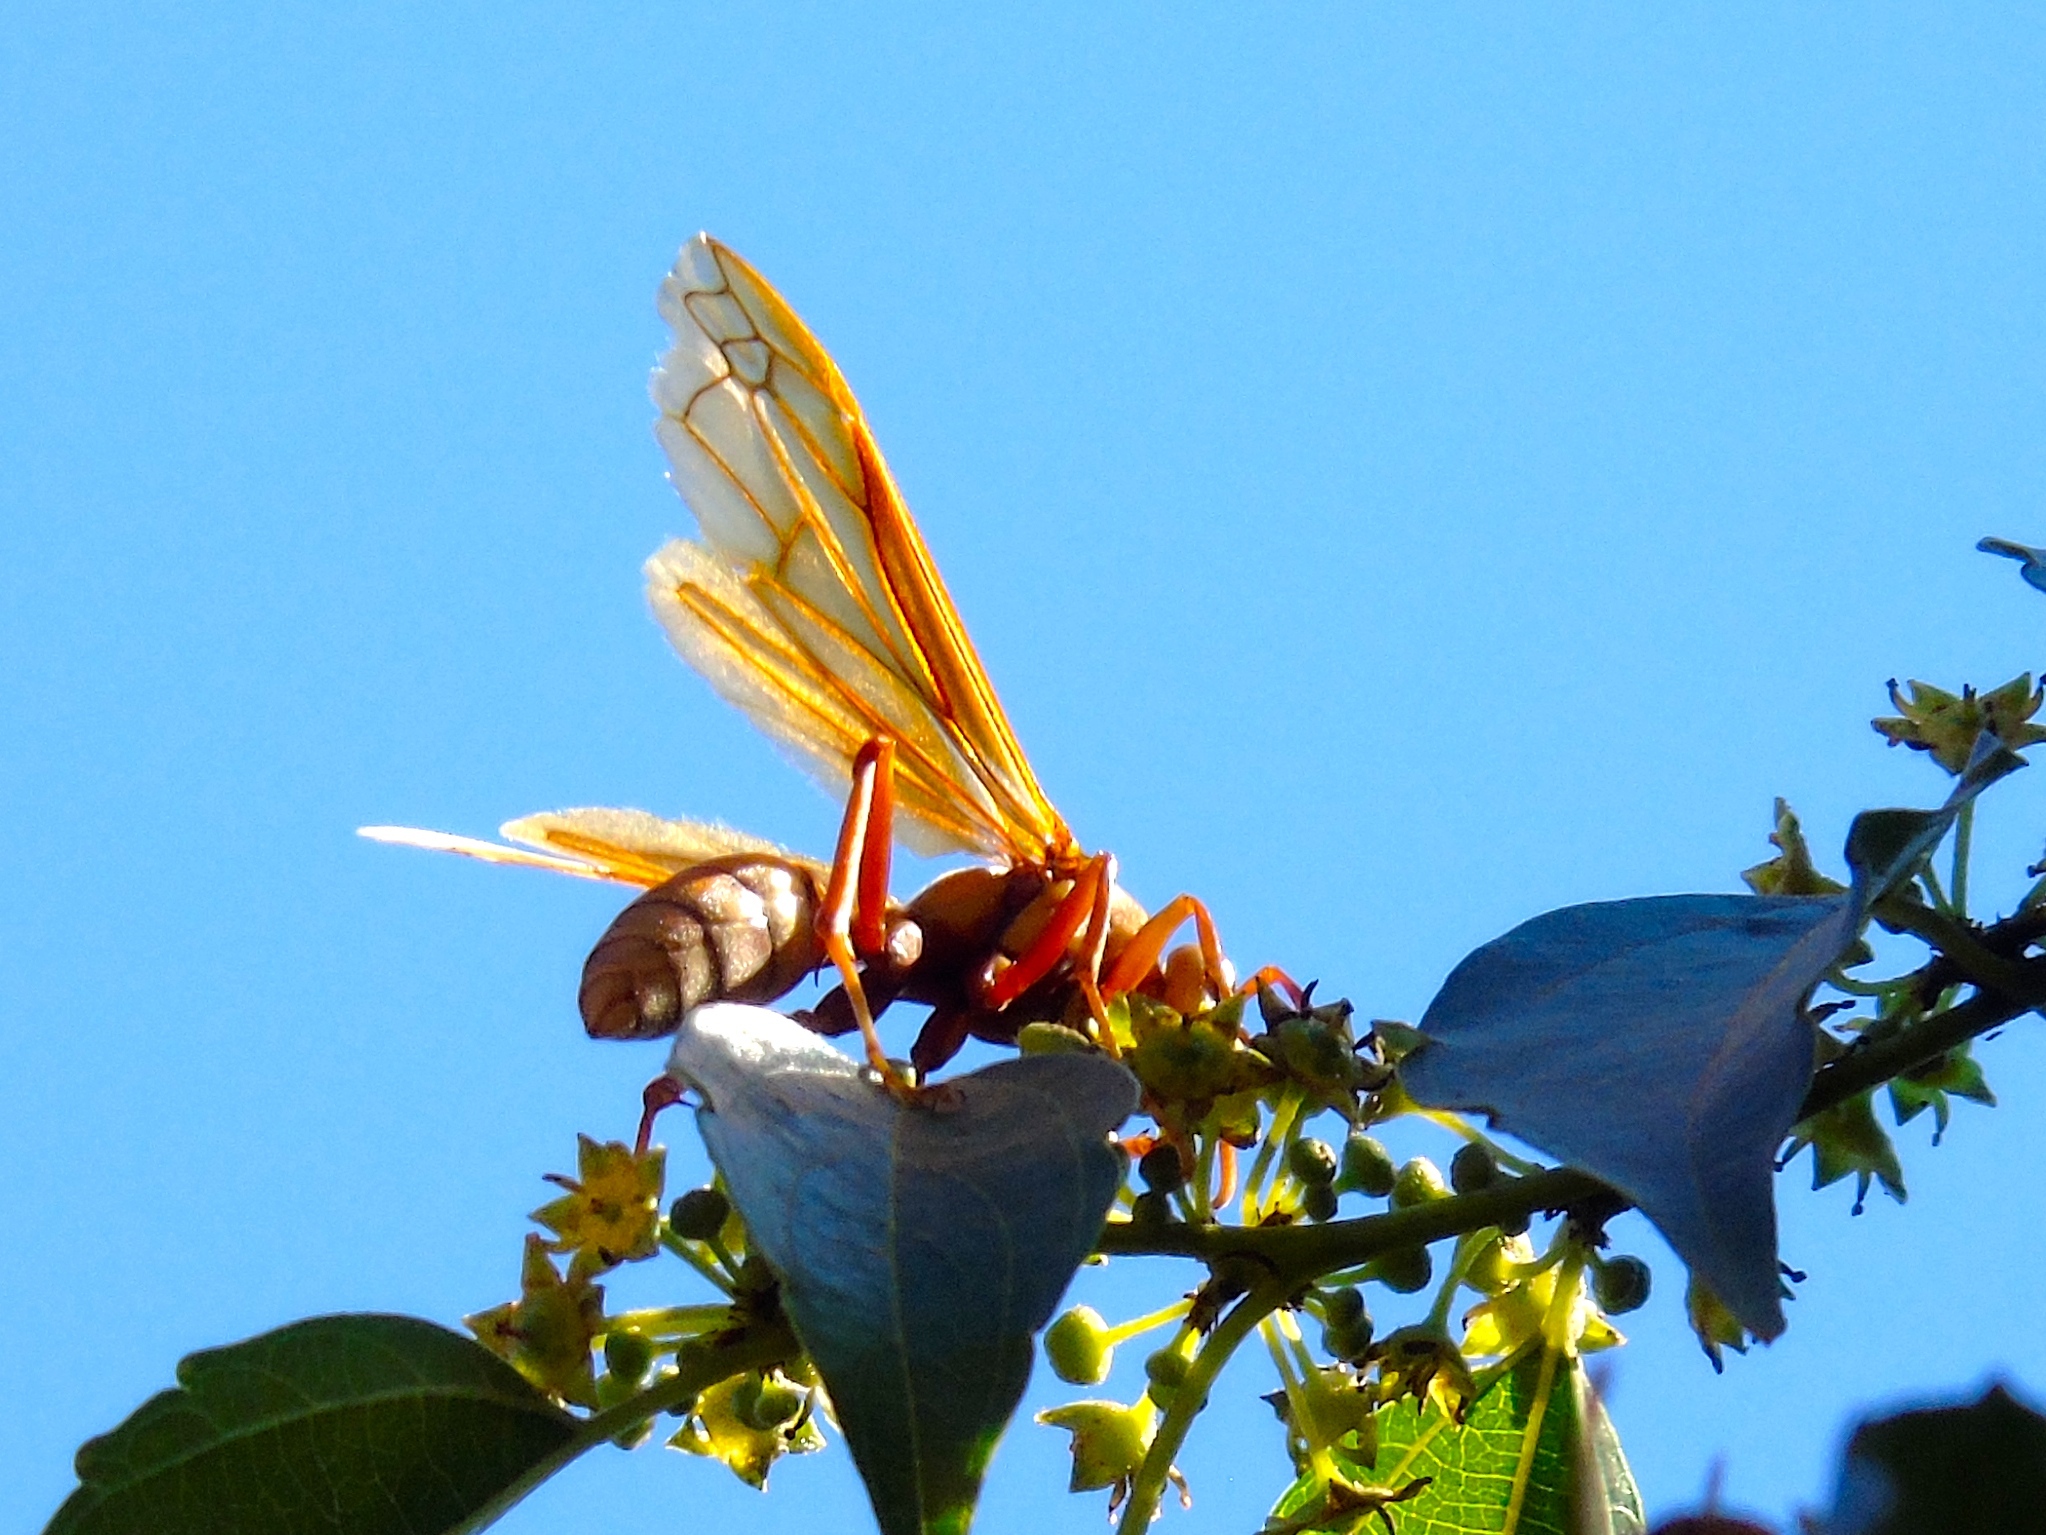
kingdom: Animalia
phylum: Arthropoda
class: Insecta
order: Hymenoptera
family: Eumenidae
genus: Polistes
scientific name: Polistes
